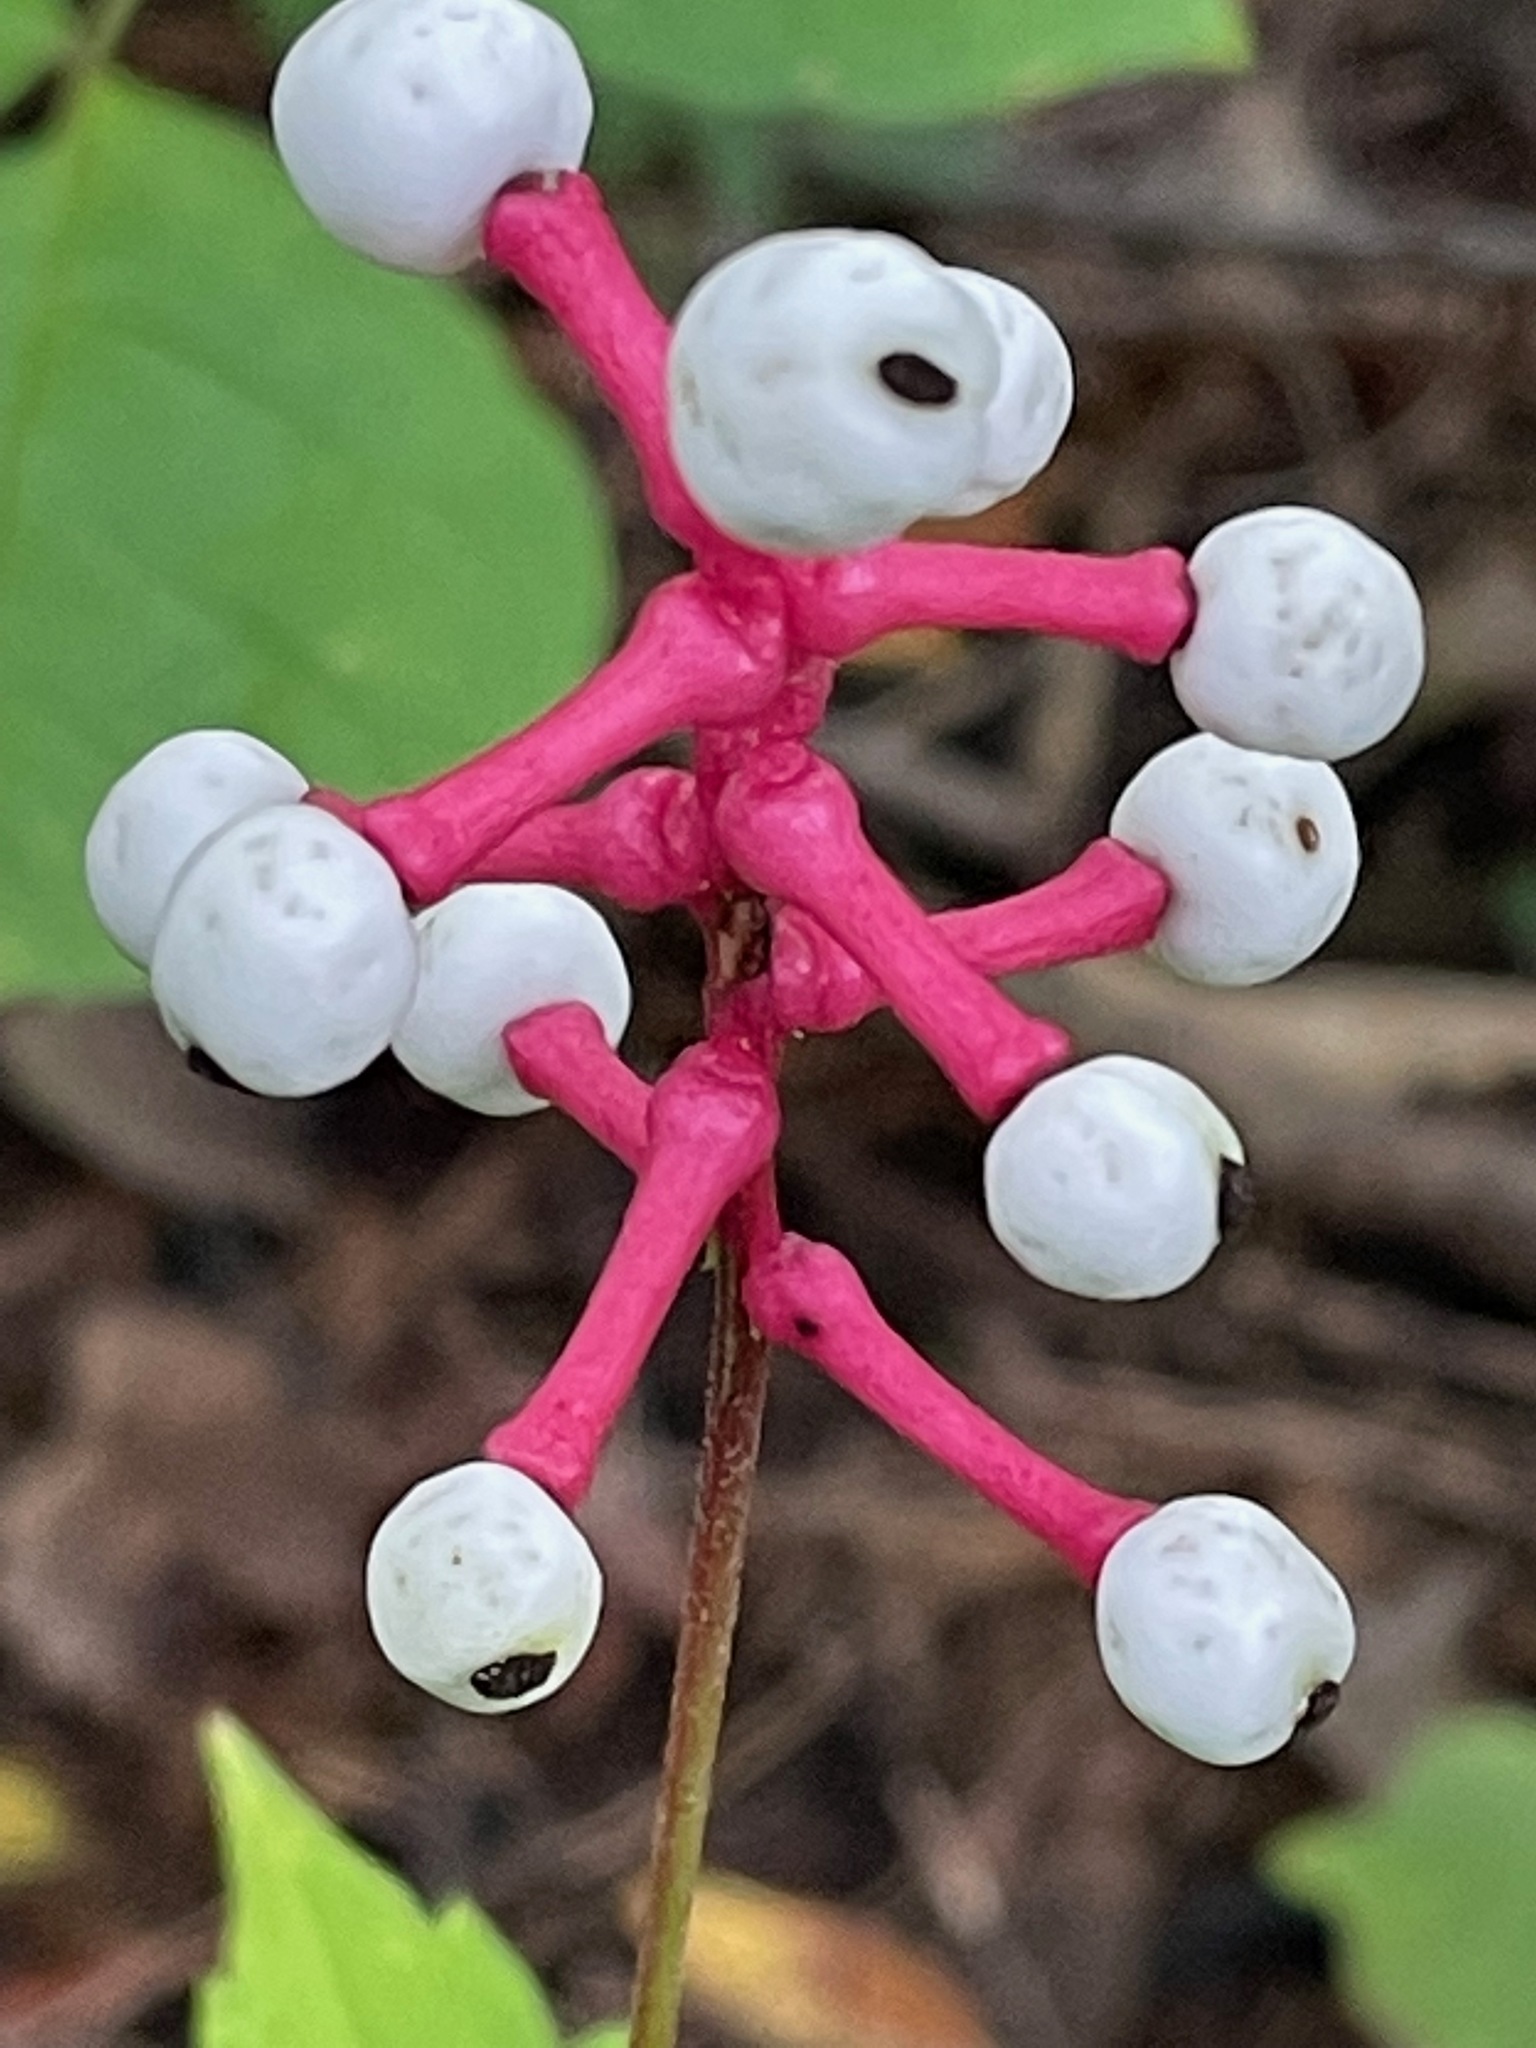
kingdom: Plantae
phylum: Tracheophyta
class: Magnoliopsida
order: Ranunculales
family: Ranunculaceae
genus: Actaea
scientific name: Actaea pachypoda
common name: Doll's-eyes
